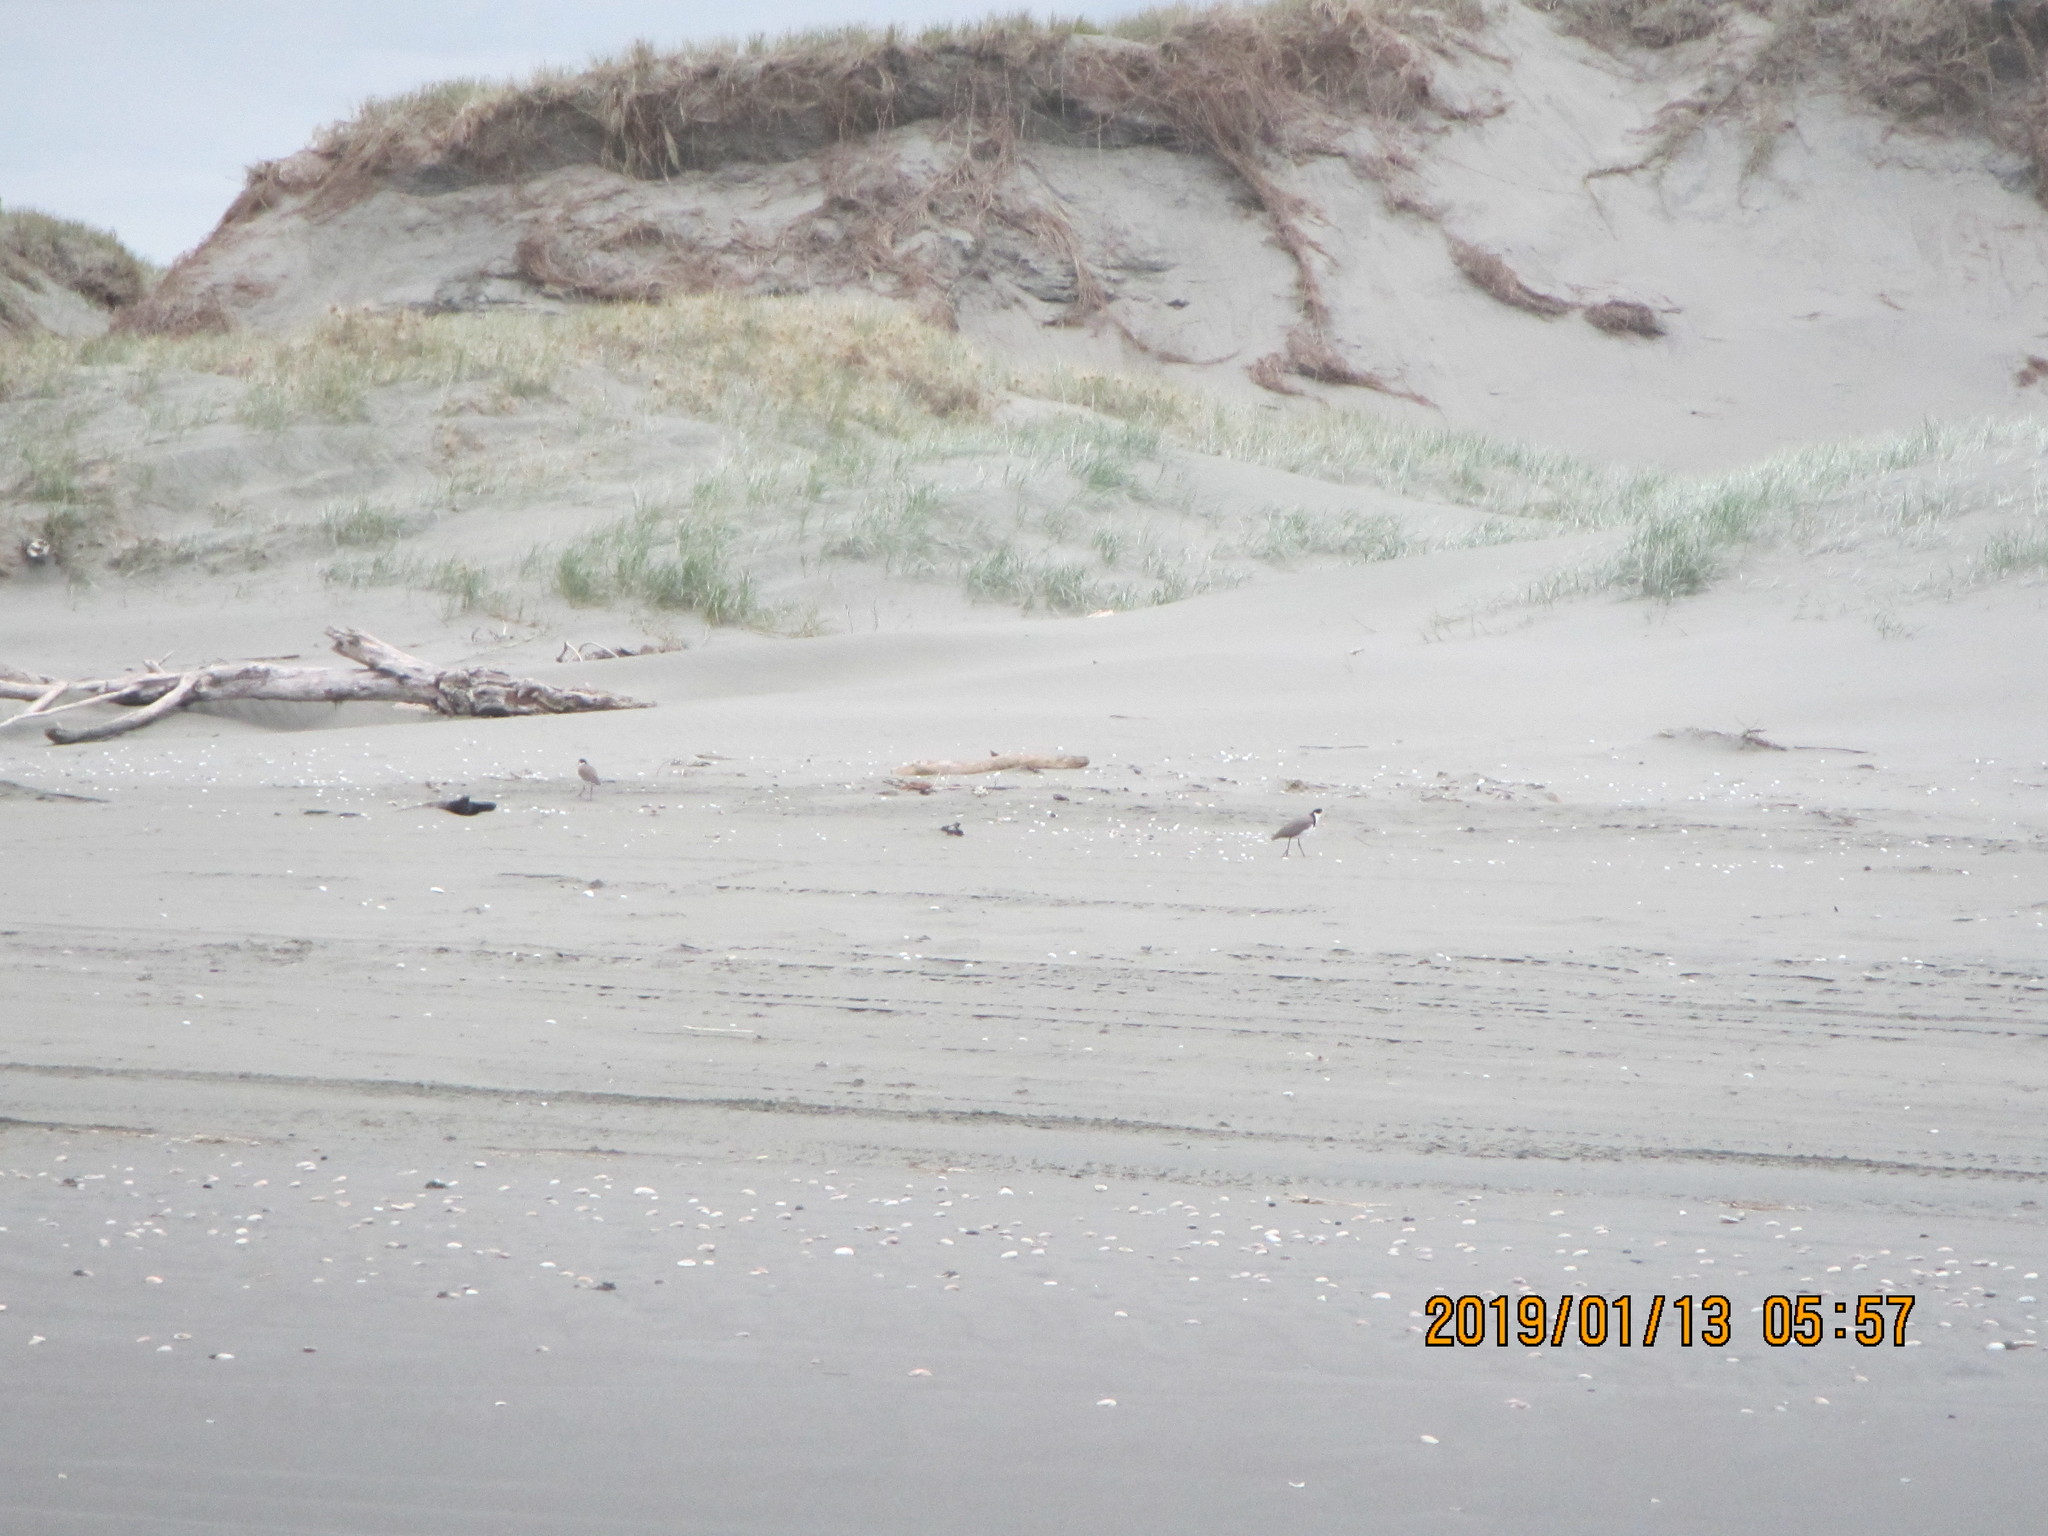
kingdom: Animalia
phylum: Chordata
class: Aves
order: Charadriiformes
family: Charadriidae
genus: Vanellus
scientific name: Vanellus miles
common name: Masked lapwing
